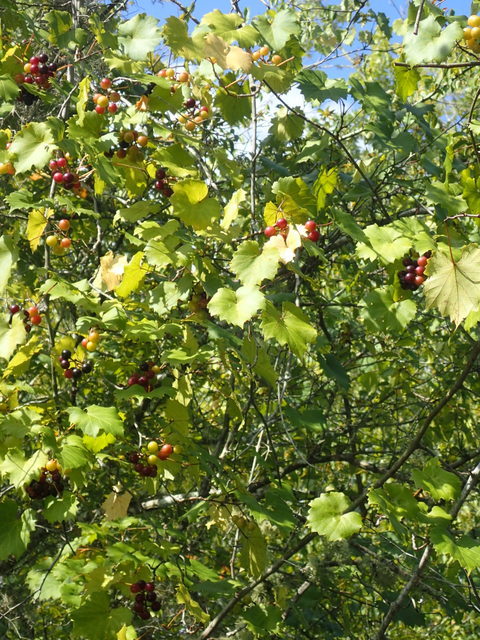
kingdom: Plantae
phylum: Tracheophyta
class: Magnoliopsida
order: Vitales
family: Vitaceae
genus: Vitis
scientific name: Vitis rotundifolia
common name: Muscadine grape
